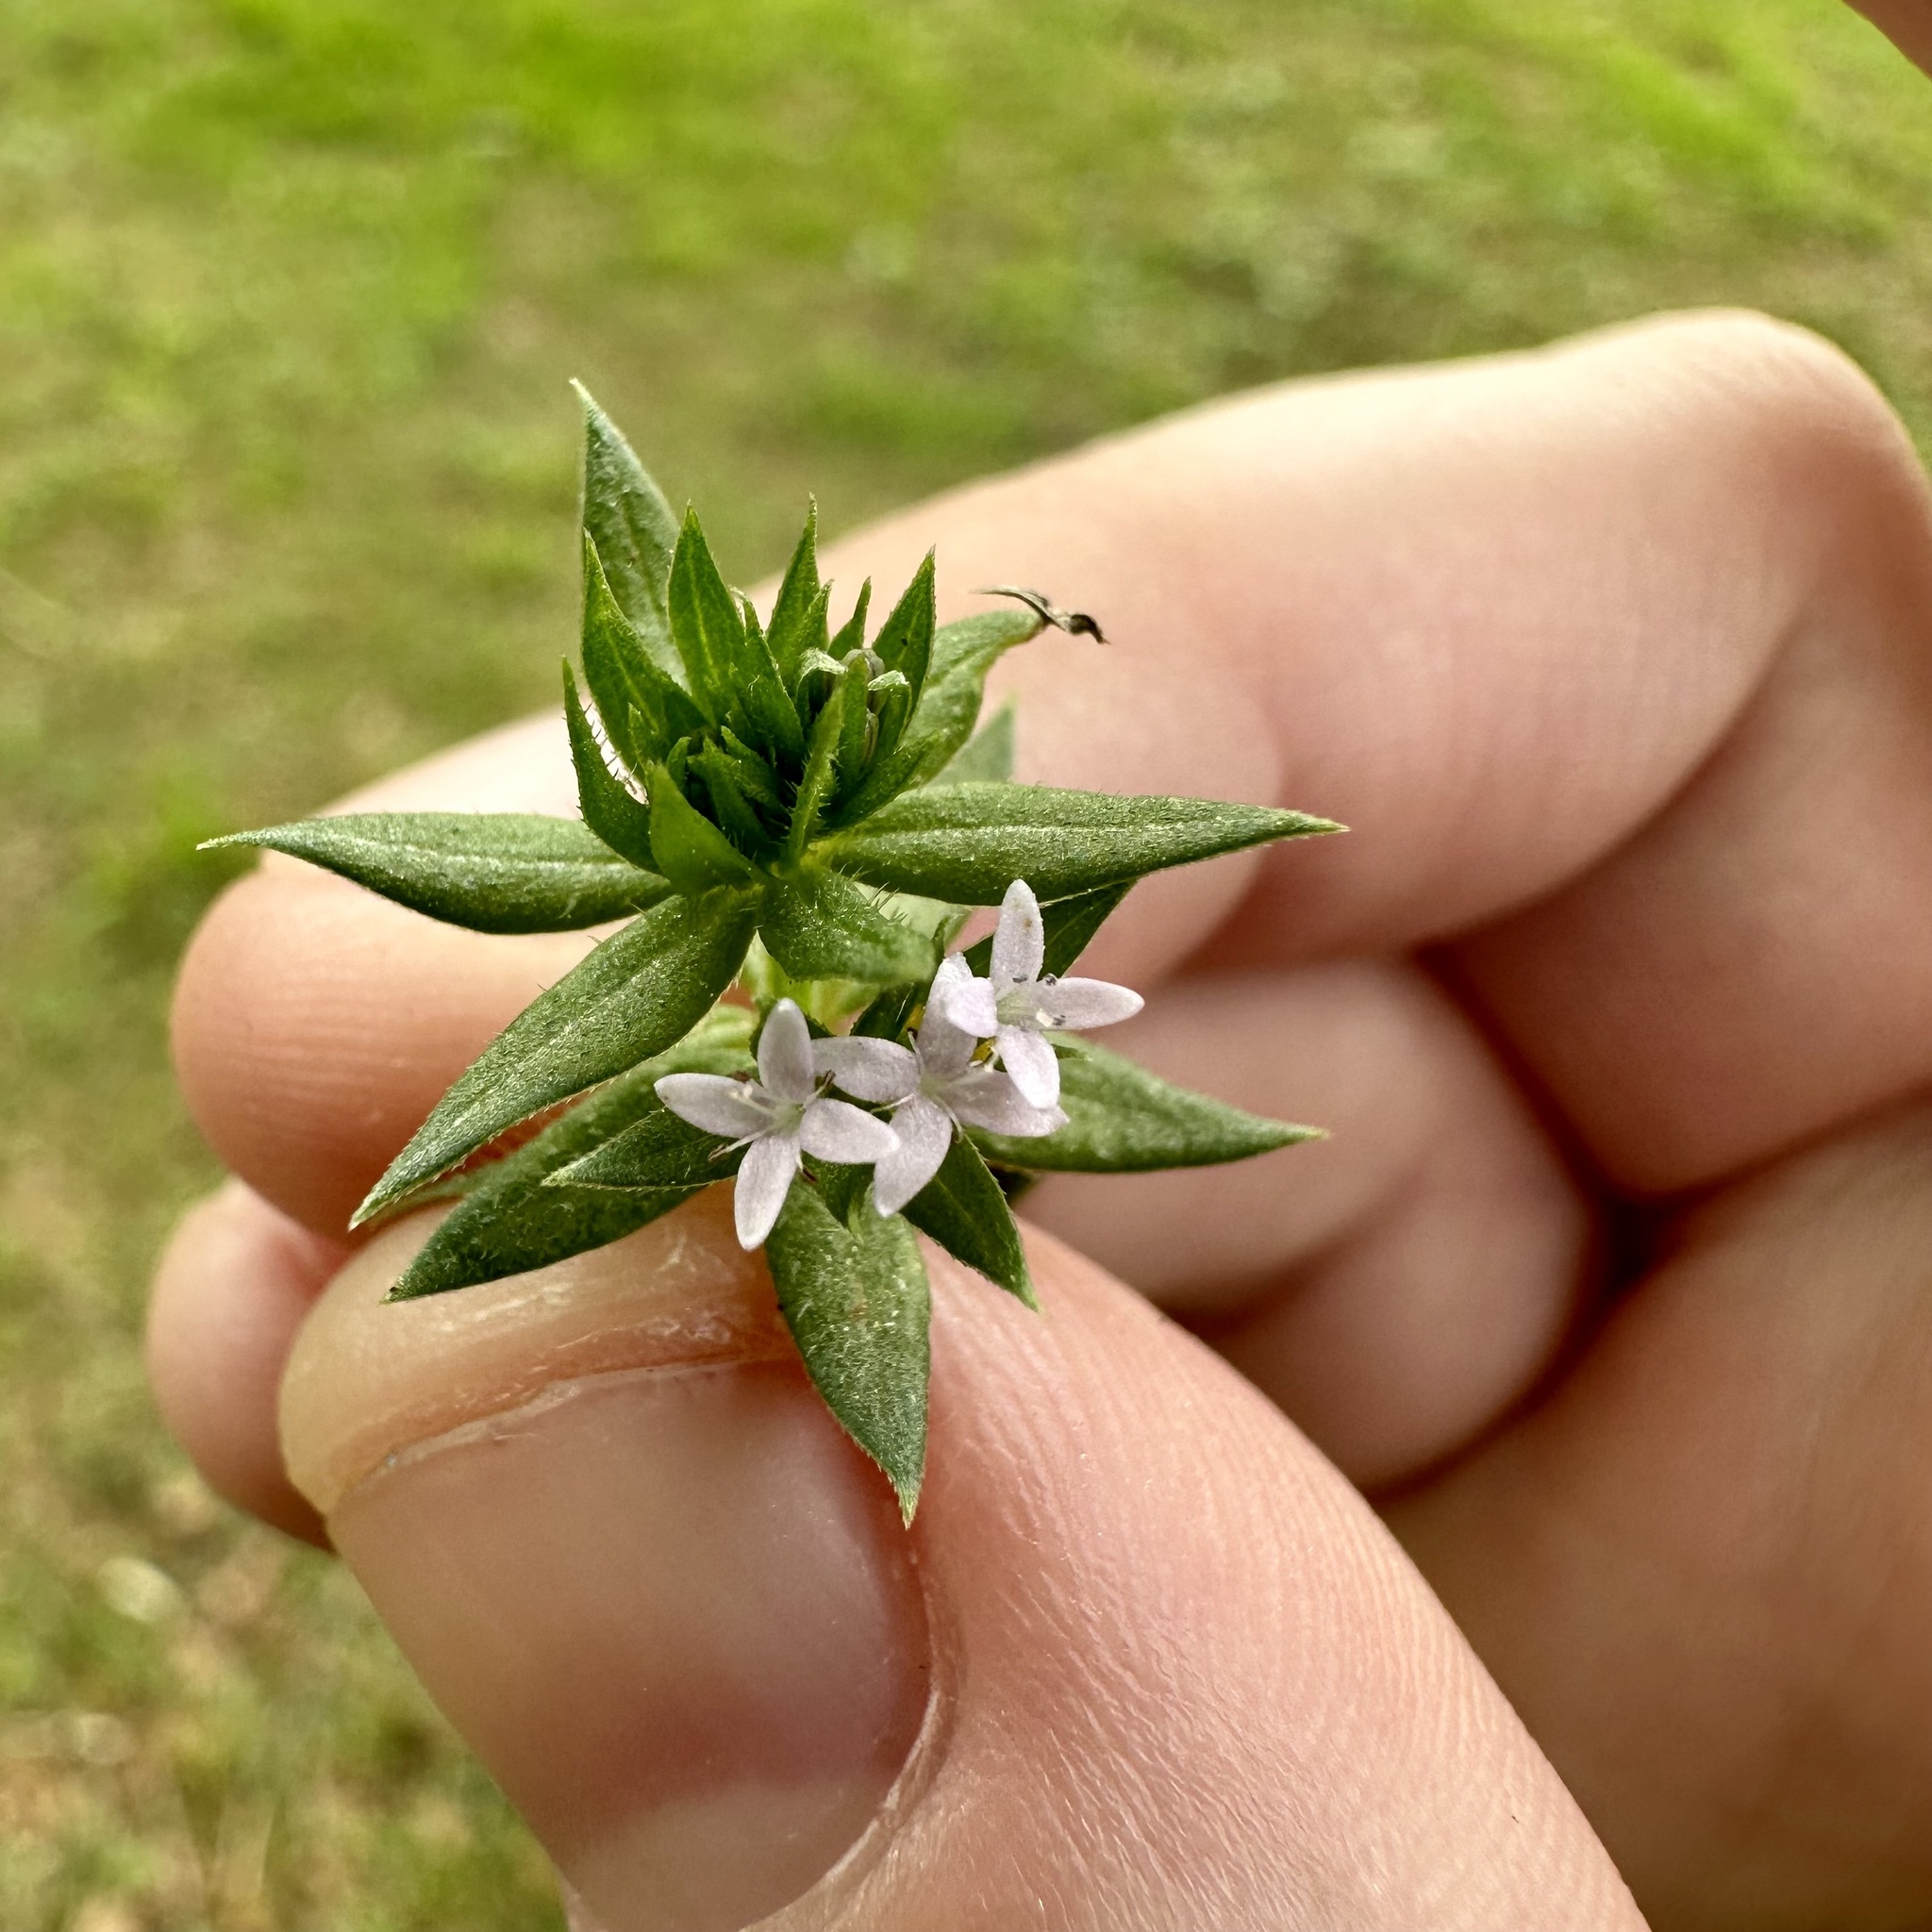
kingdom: Plantae
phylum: Tracheophyta
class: Magnoliopsida
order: Gentianales
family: Rubiaceae
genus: Sherardia
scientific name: Sherardia arvensis
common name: Field madder
